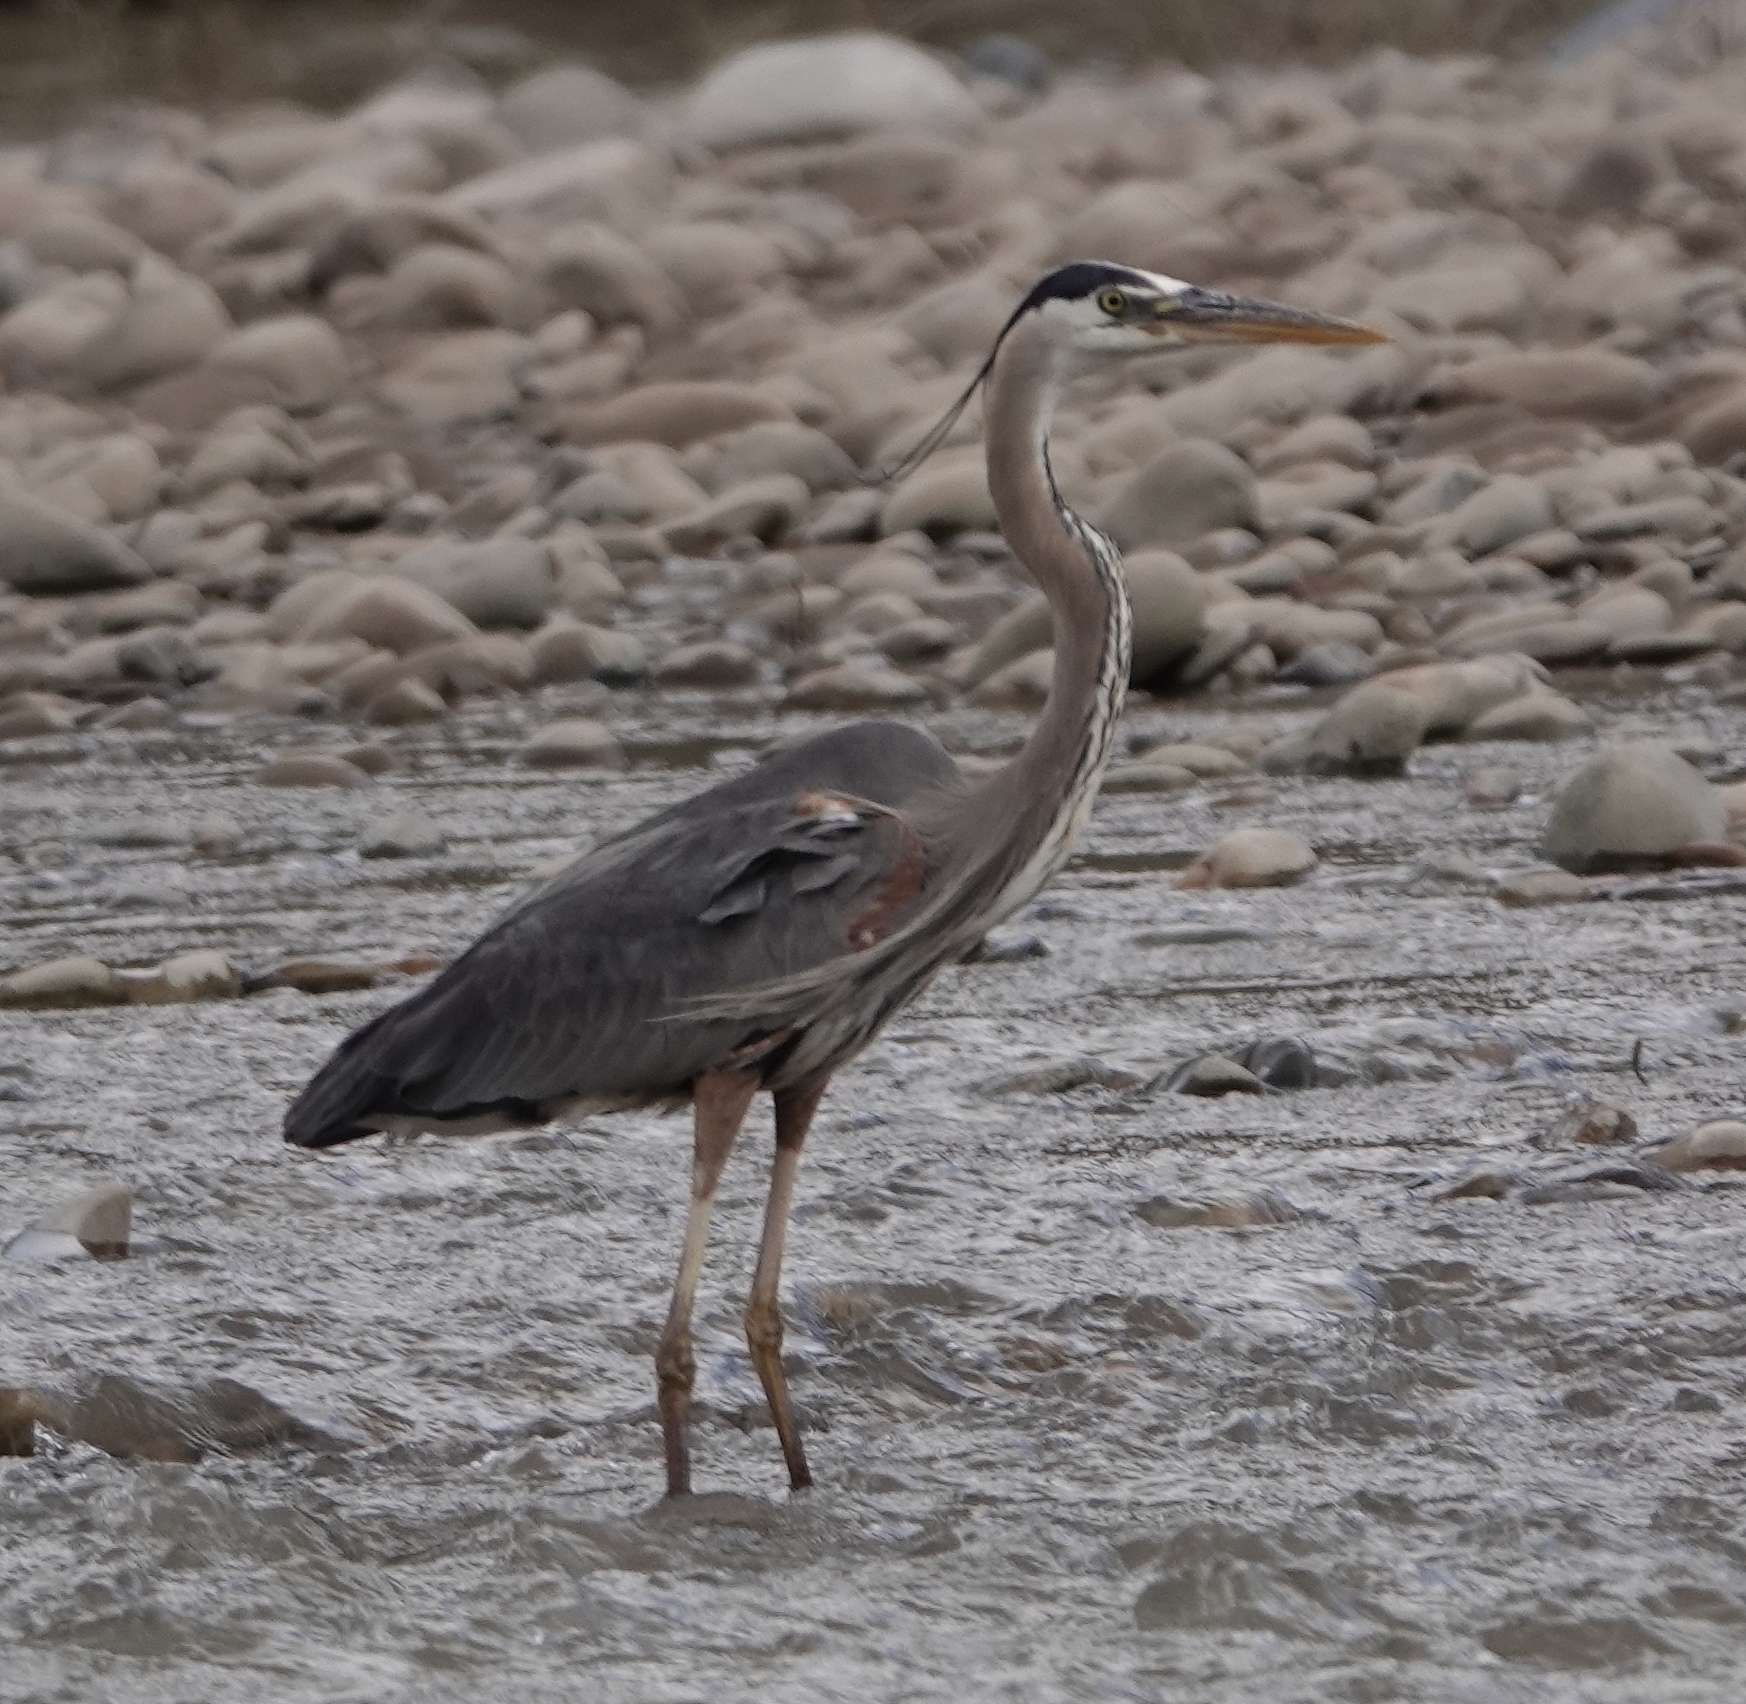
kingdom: Animalia
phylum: Chordata
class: Aves
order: Pelecaniformes
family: Ardeidae
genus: Ardea
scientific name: Ardea herodias
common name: Great blue heron
